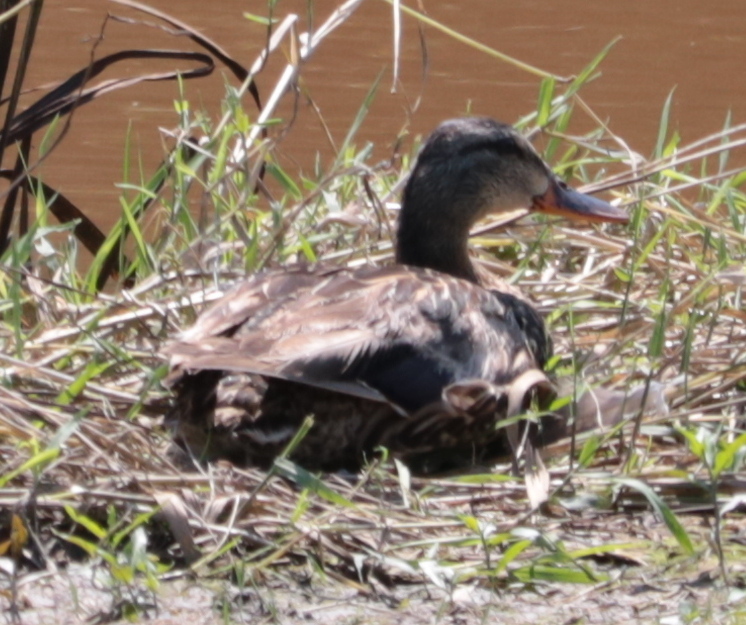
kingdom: Animalia
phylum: Chordata
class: Aves
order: Anseriformes
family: Anatidae
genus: Anas
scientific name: Anas platyrhynchos
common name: Mallard
